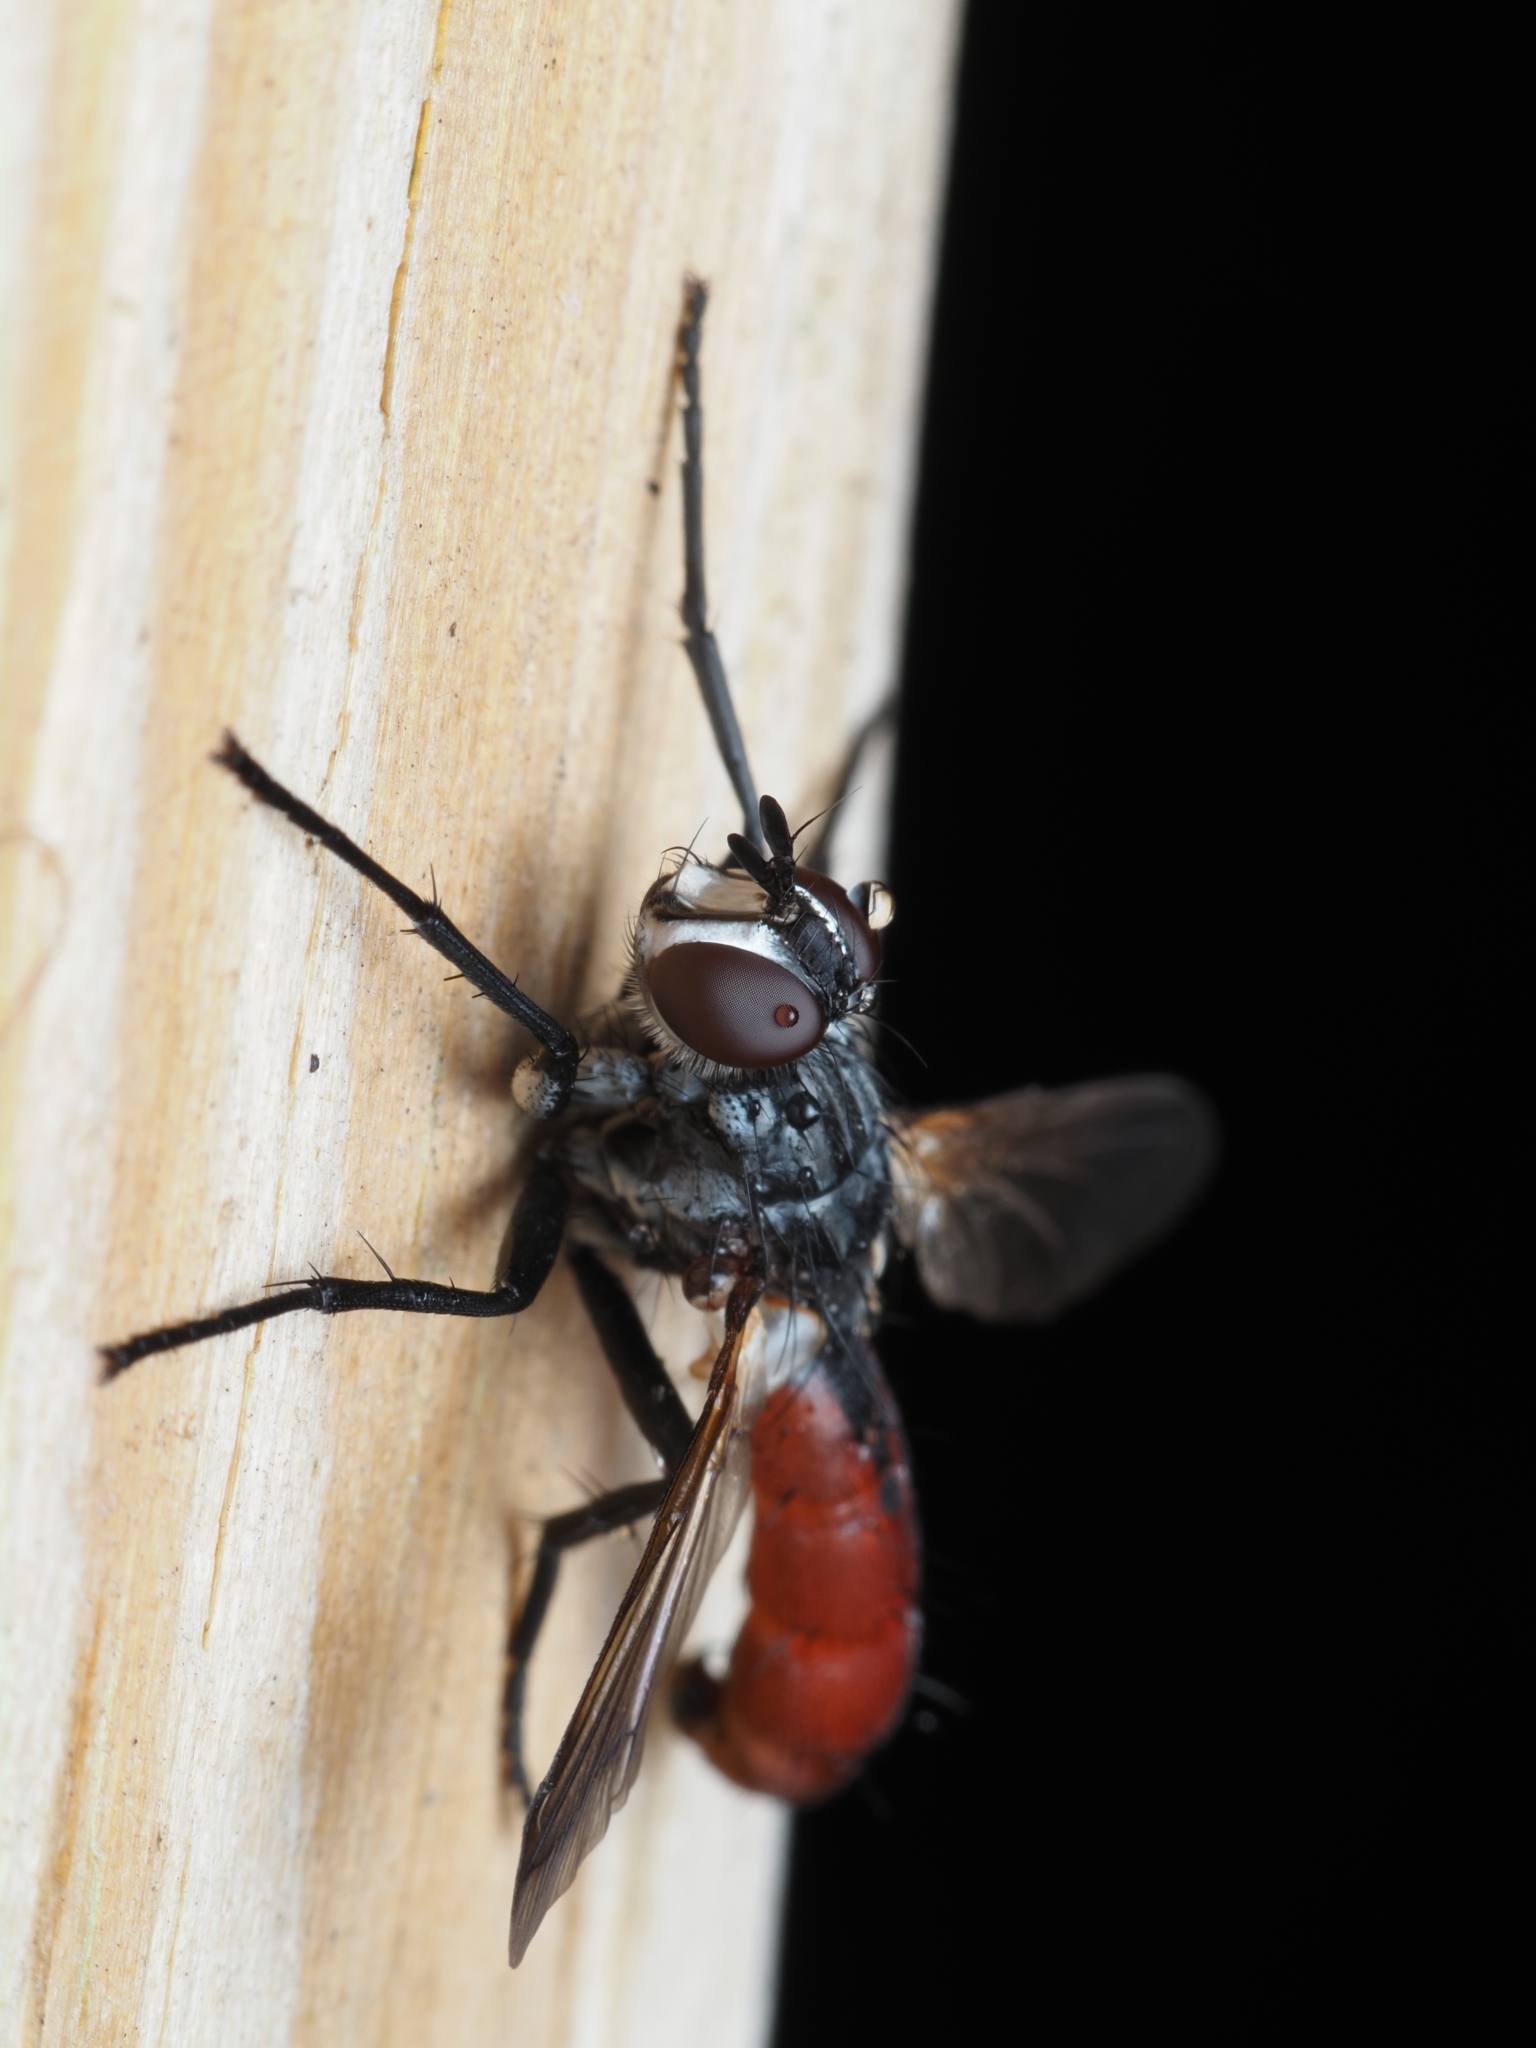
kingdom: Animalia
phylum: Arthropoda
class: Insecta
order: Diptera
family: Tachinidae
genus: Cylindromyia
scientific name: Cylindromyia bicolor
